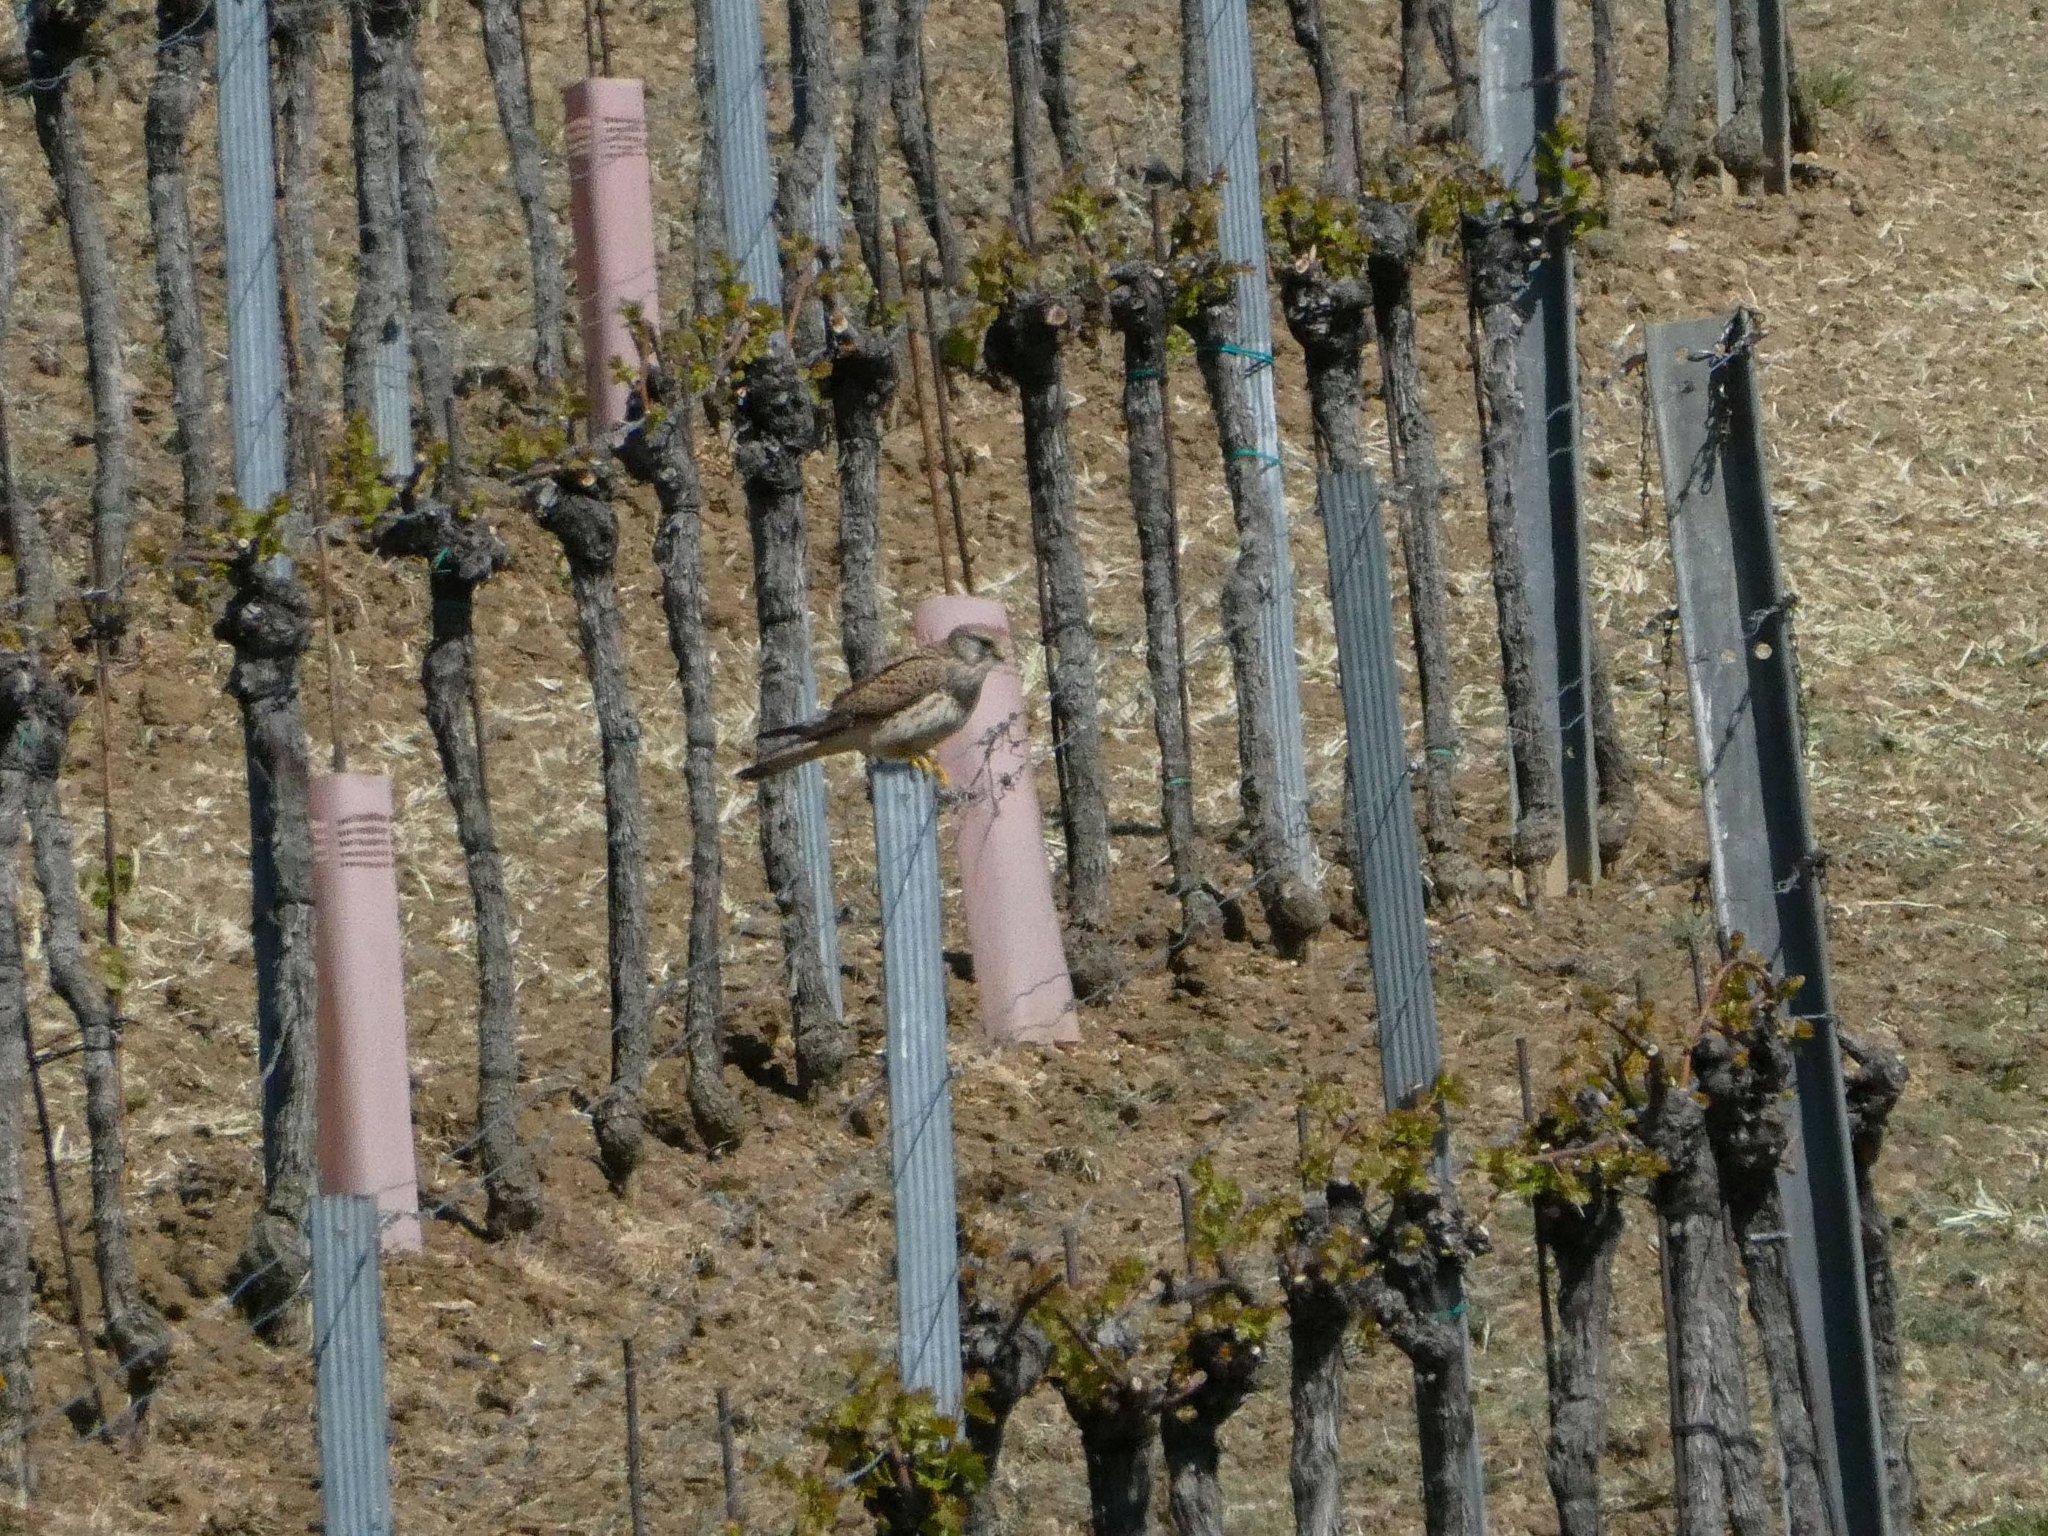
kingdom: Animalia
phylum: Chordata
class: Aves
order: Falconiformes
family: Falconidae
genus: Falco
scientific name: Falco tinnunculus
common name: Common kestrel
